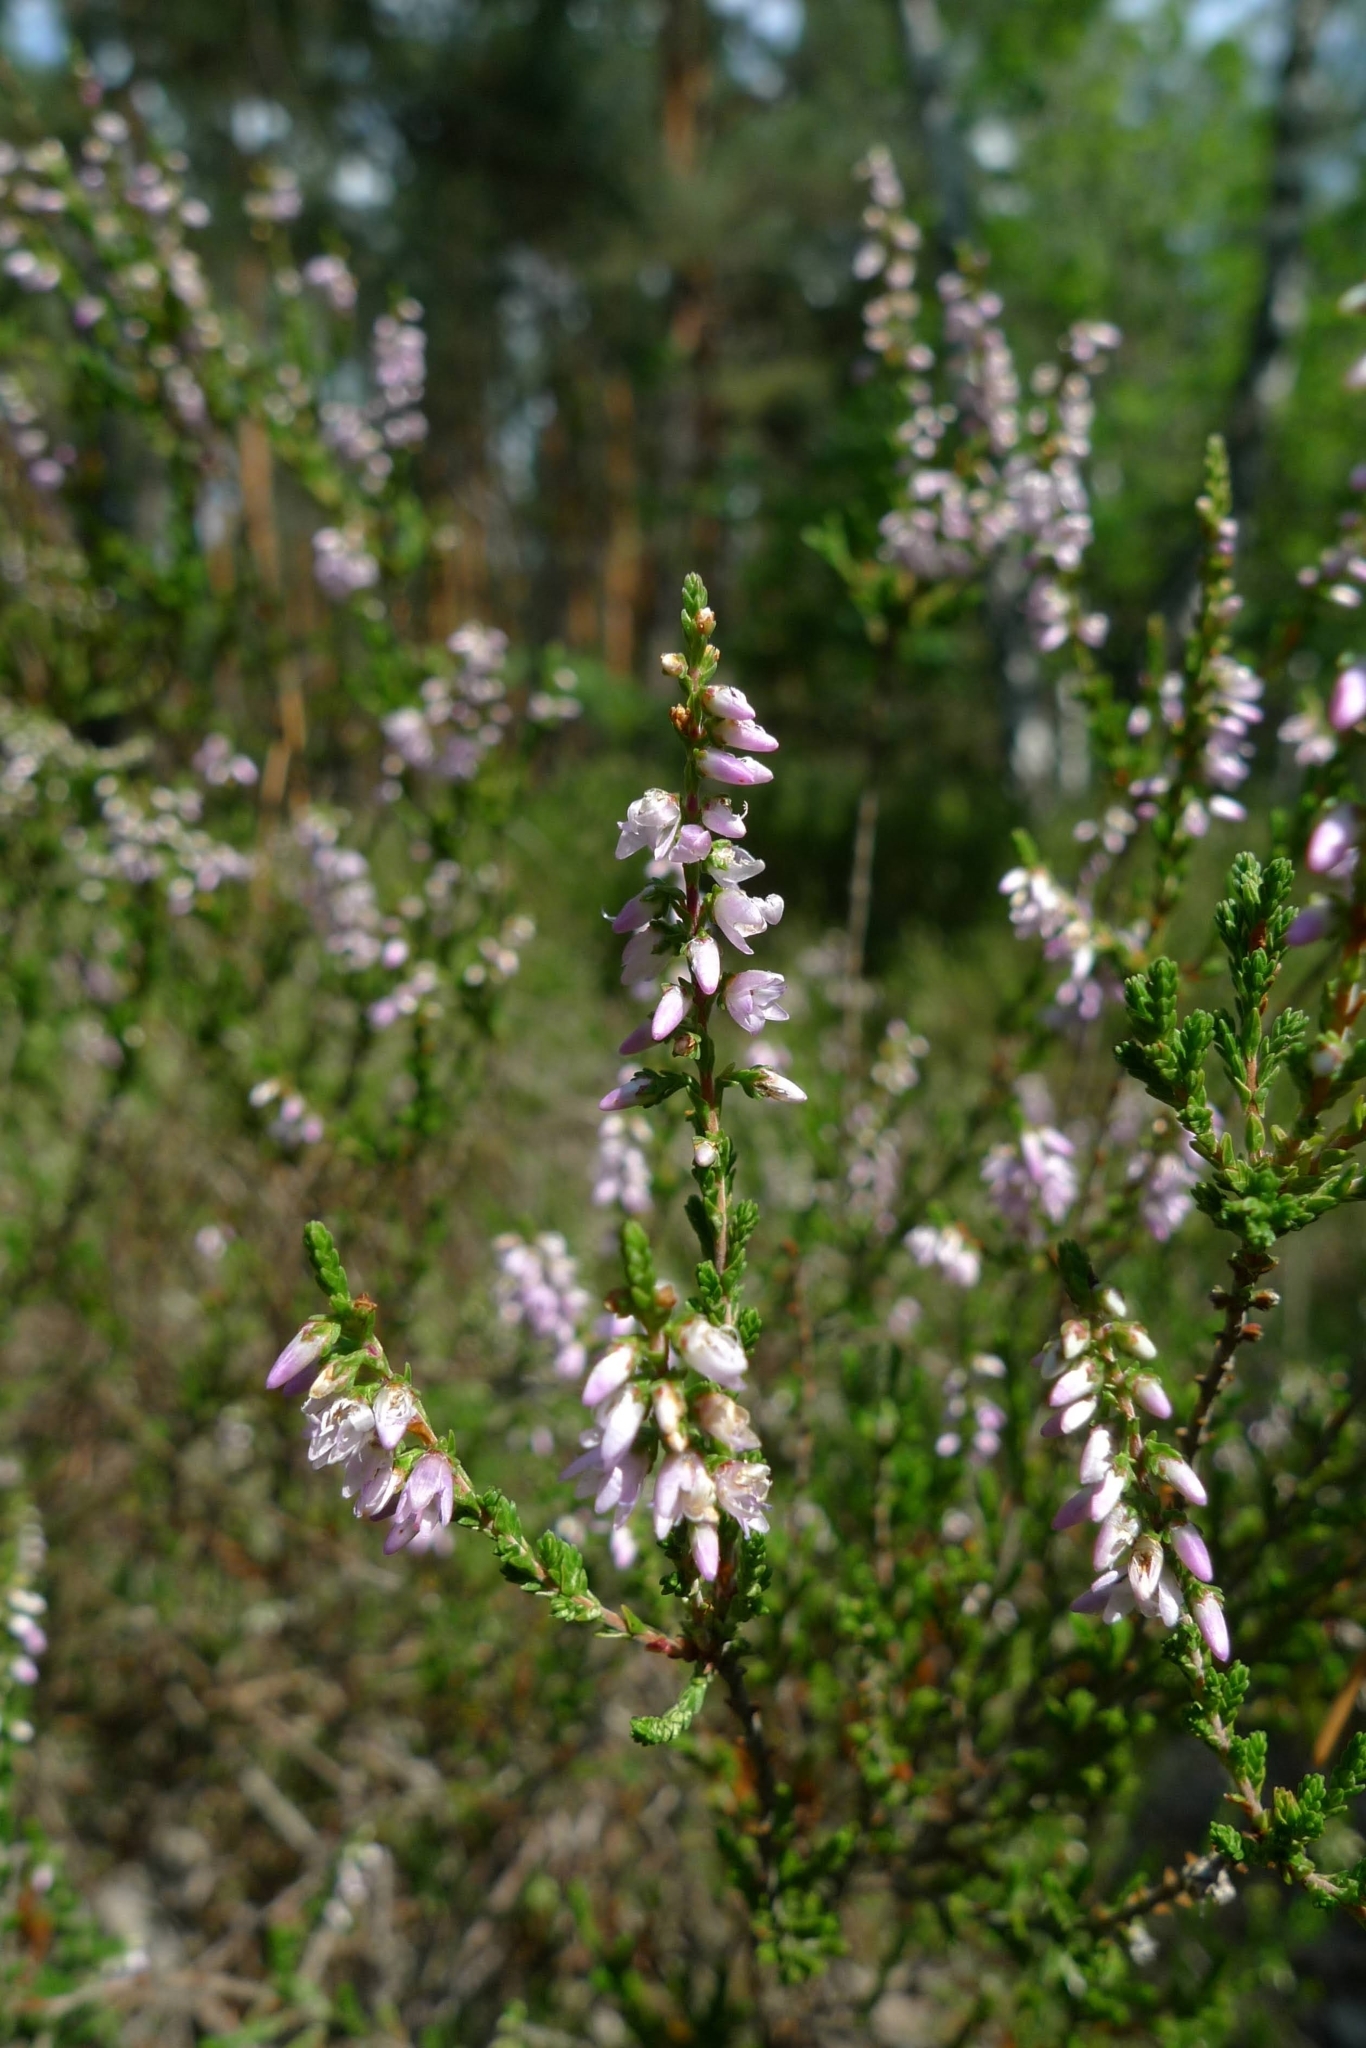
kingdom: Plantae
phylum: Tracheophyta
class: Magnoliopsida
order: Ericales
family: Ericaceae
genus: Calluna
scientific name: Calluna vulgaris
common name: Heather
